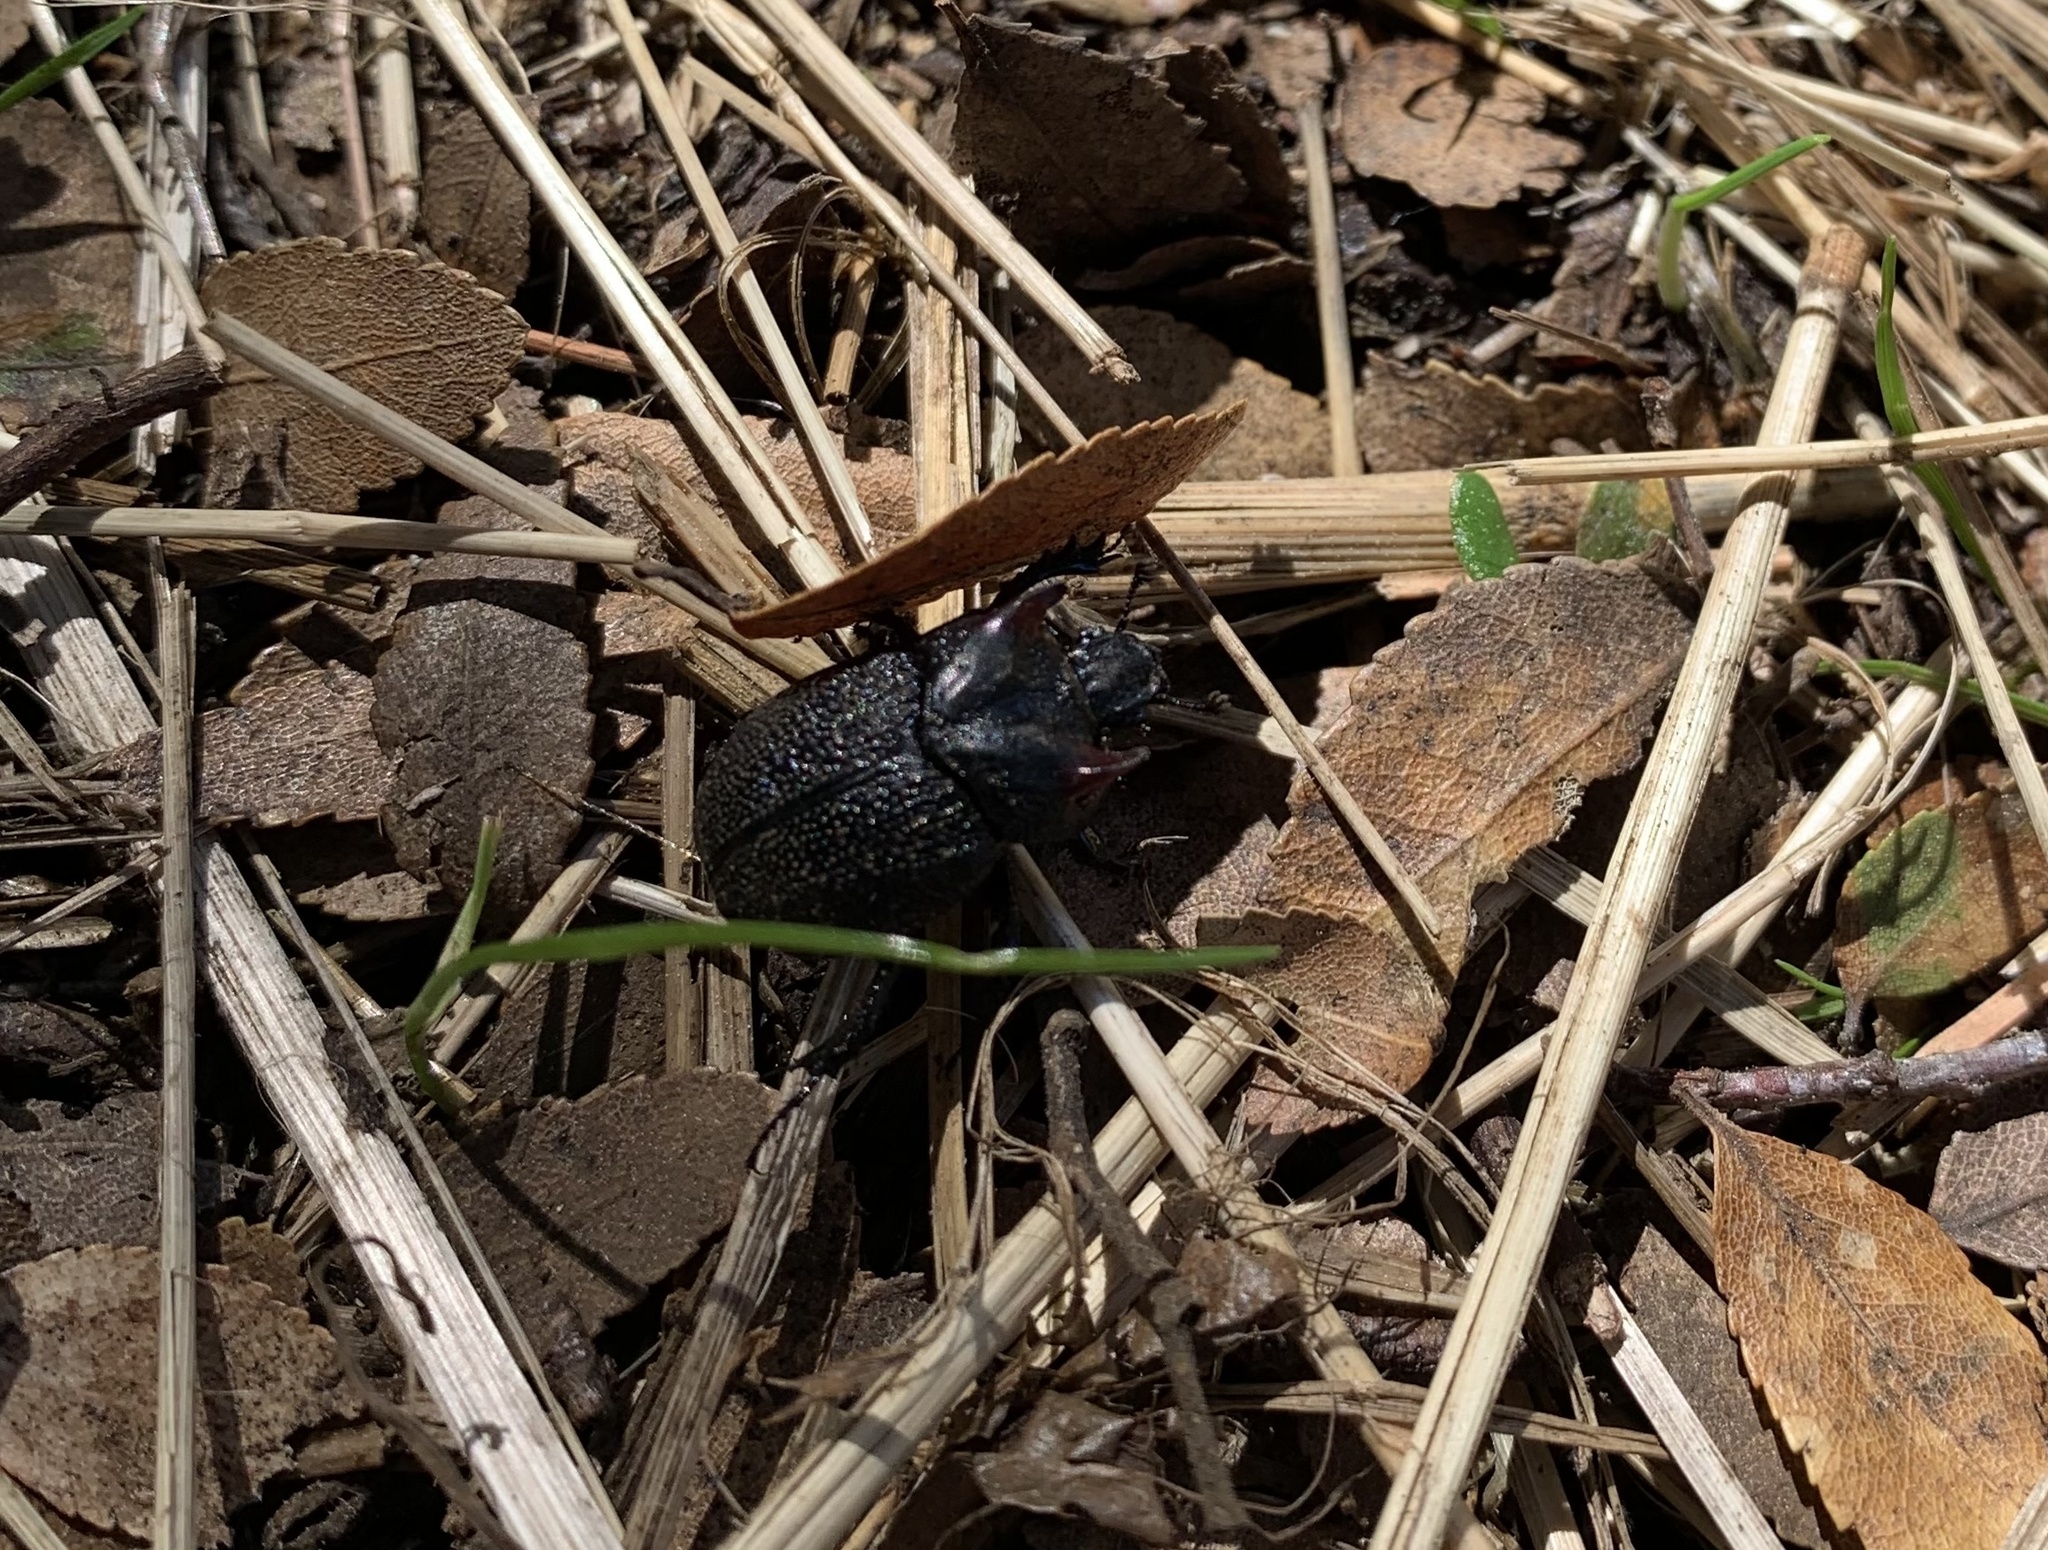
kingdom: Animalia
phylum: Arthropoda
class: Insecta
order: Coleoptera
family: Geotrupidae
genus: Frickius
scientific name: Frickius variolosus
